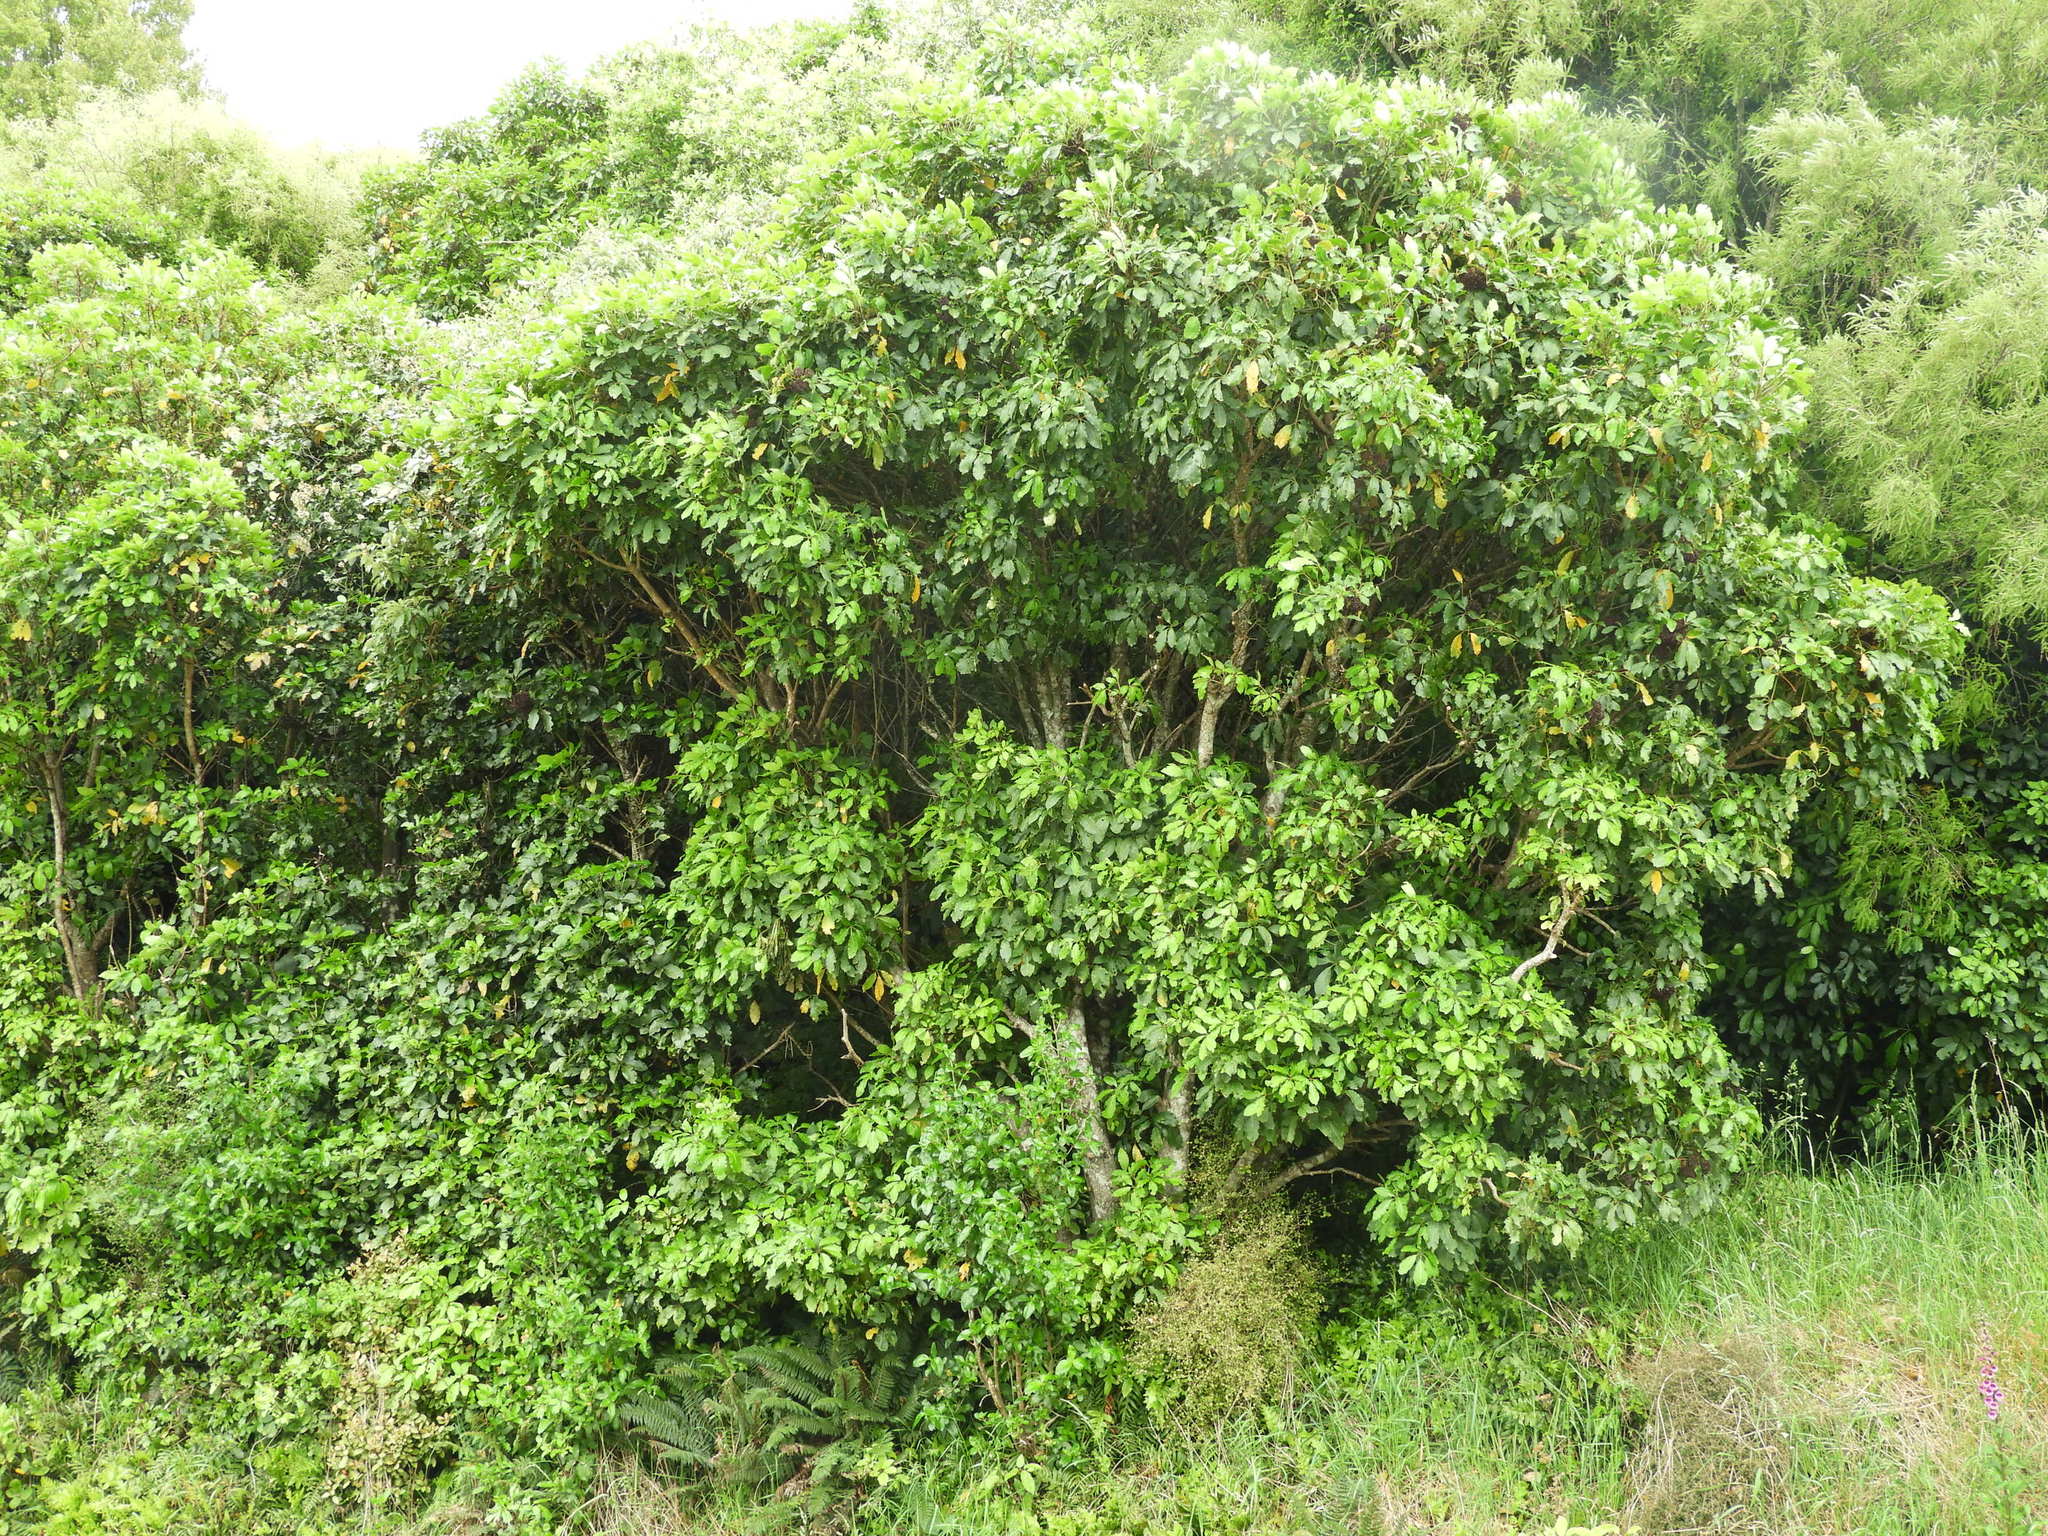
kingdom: Plantae
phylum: Tracheophyta
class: Magnoliopsida
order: Apiales
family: Araliaceae
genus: Neopanax
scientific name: Neopanax arboreus
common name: Five-fingers
